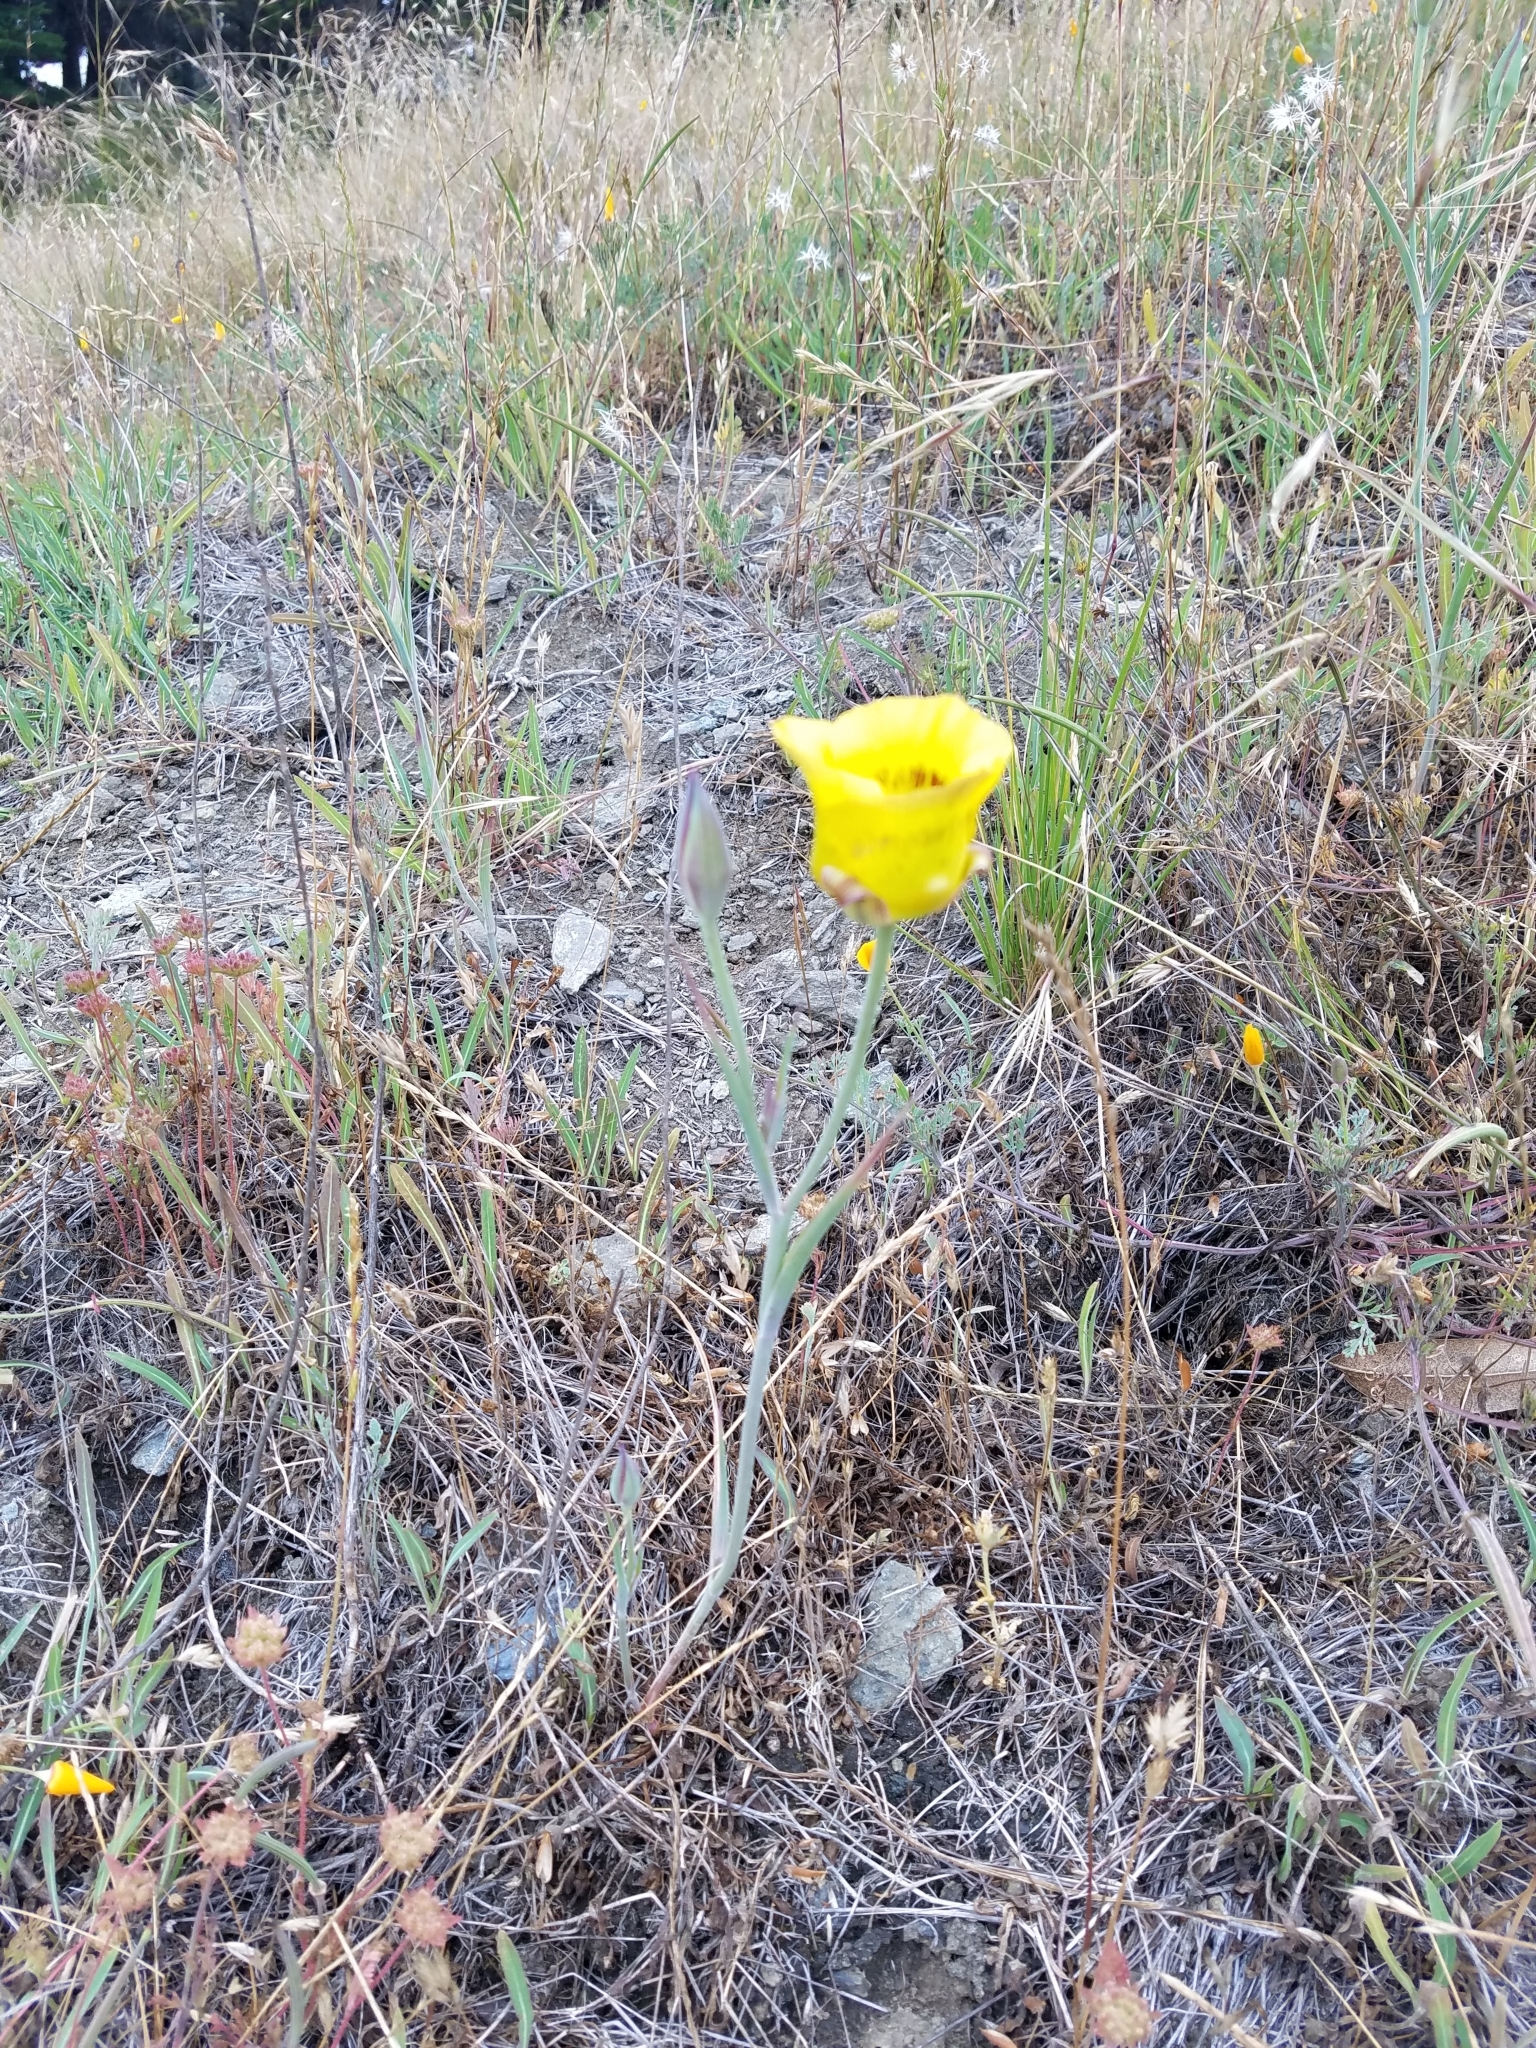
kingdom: Plantae
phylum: Tracheophyta
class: Liliopsida
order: Liliales
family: Liliaceae
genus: Calochortus
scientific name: Calochortus luteus
